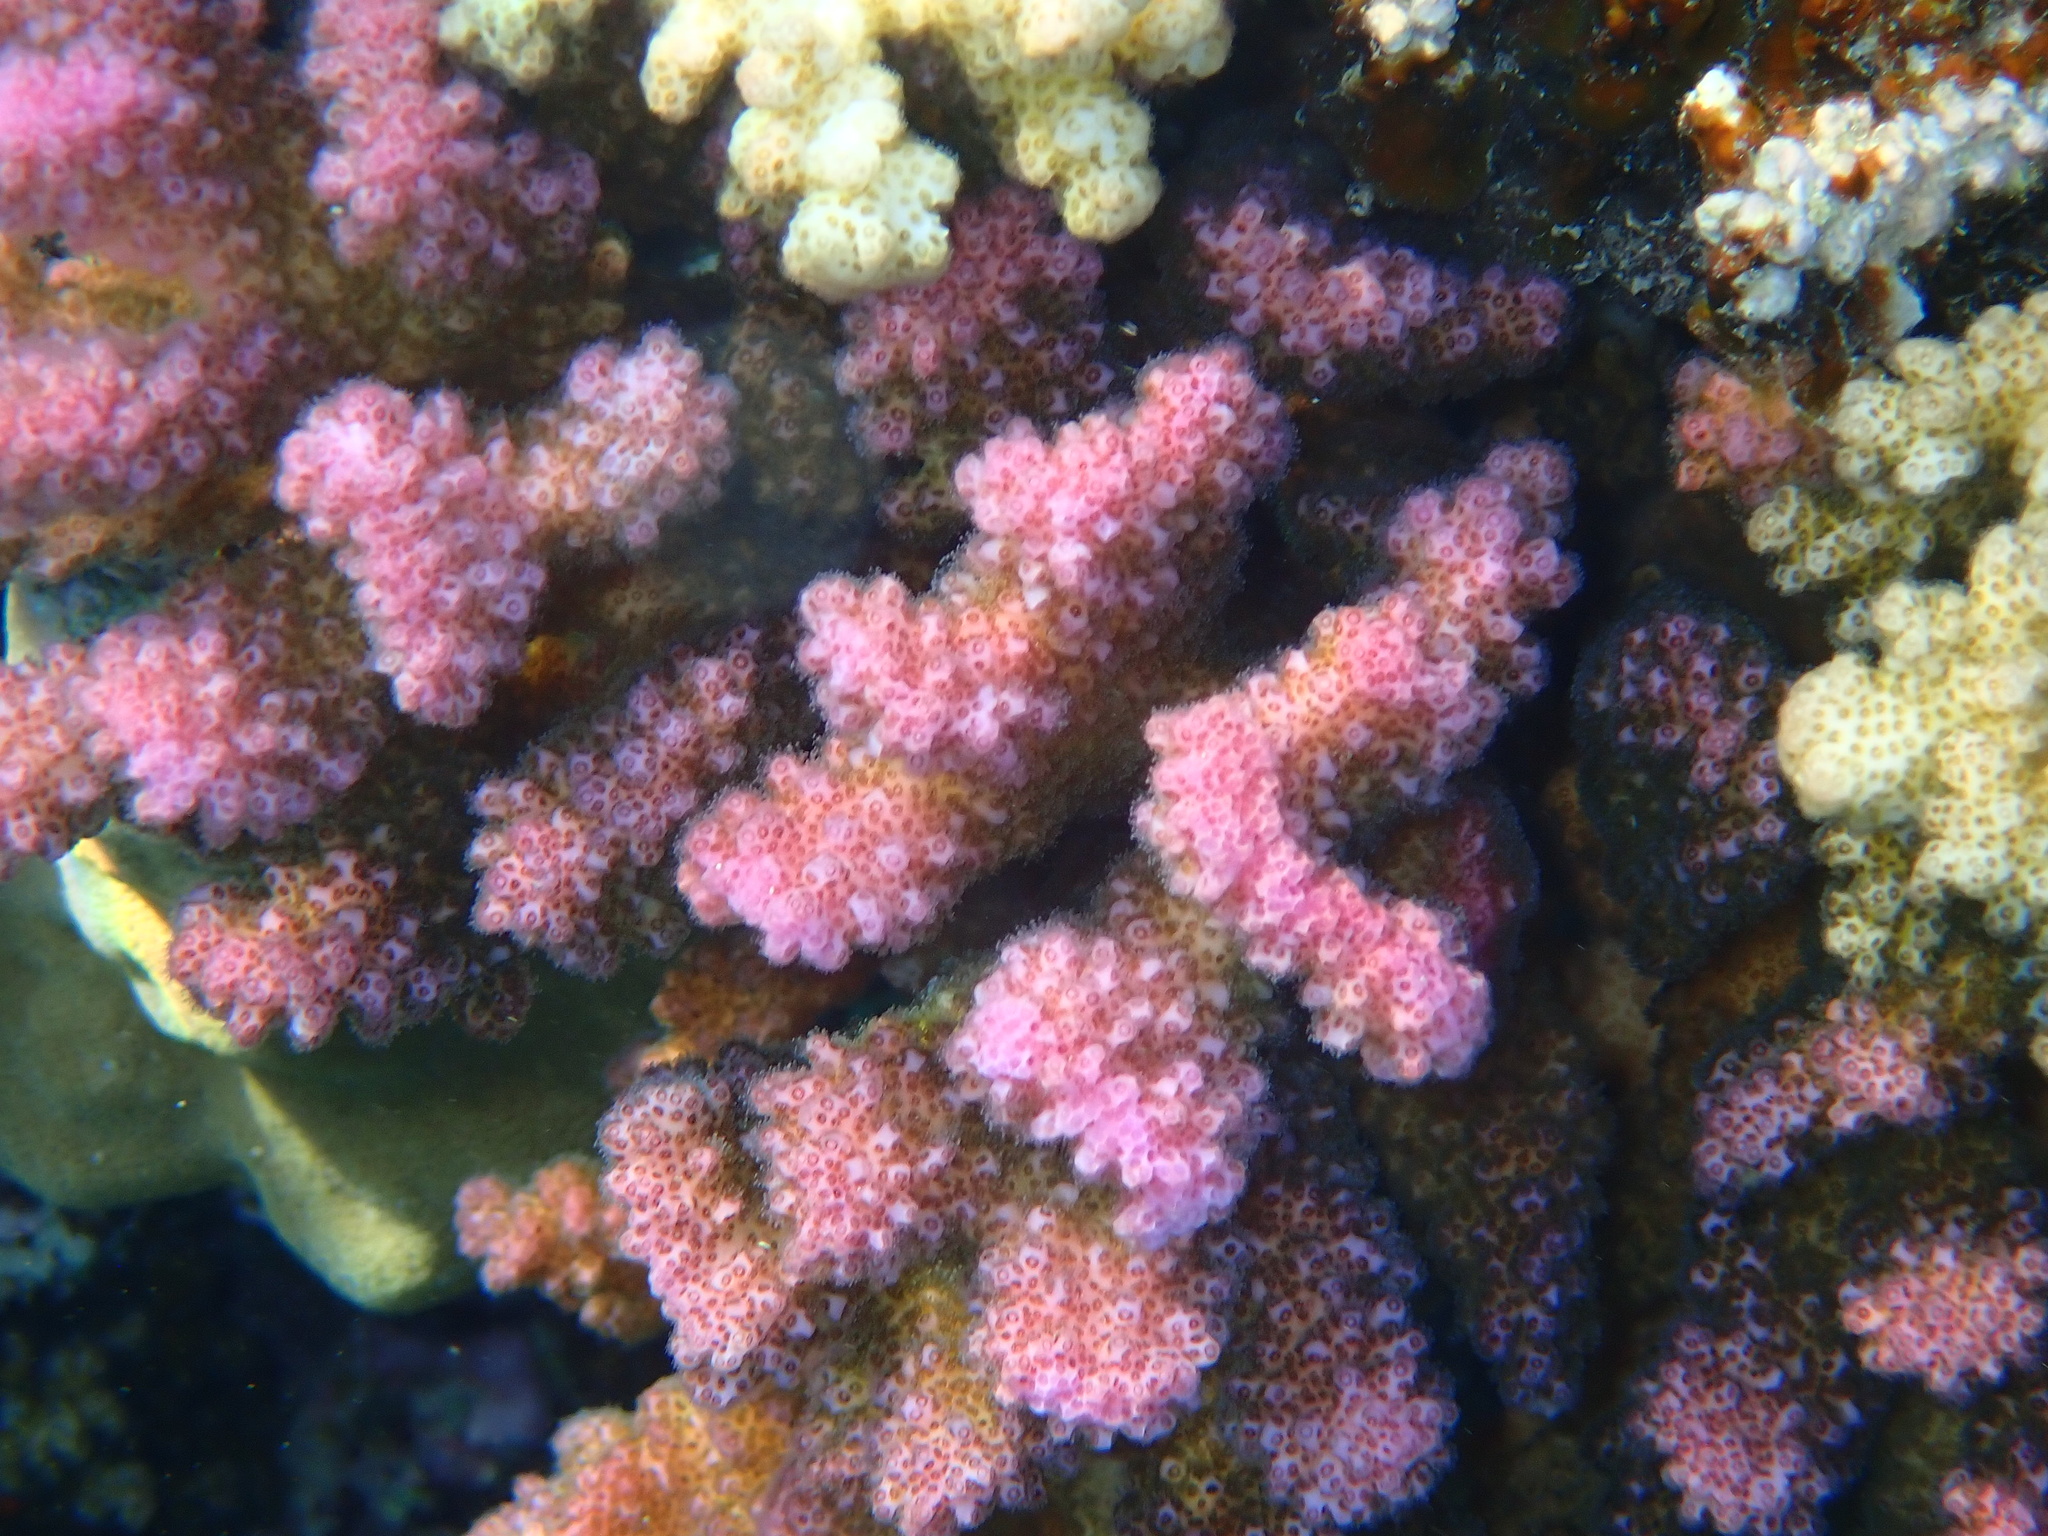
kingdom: Animalia
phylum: Cnidaria
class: Anthozoa
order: Scleractinia
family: Pocilloporidae
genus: Pocillopora
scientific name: Pocillopora verrucosa
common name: Cauliflower coral
